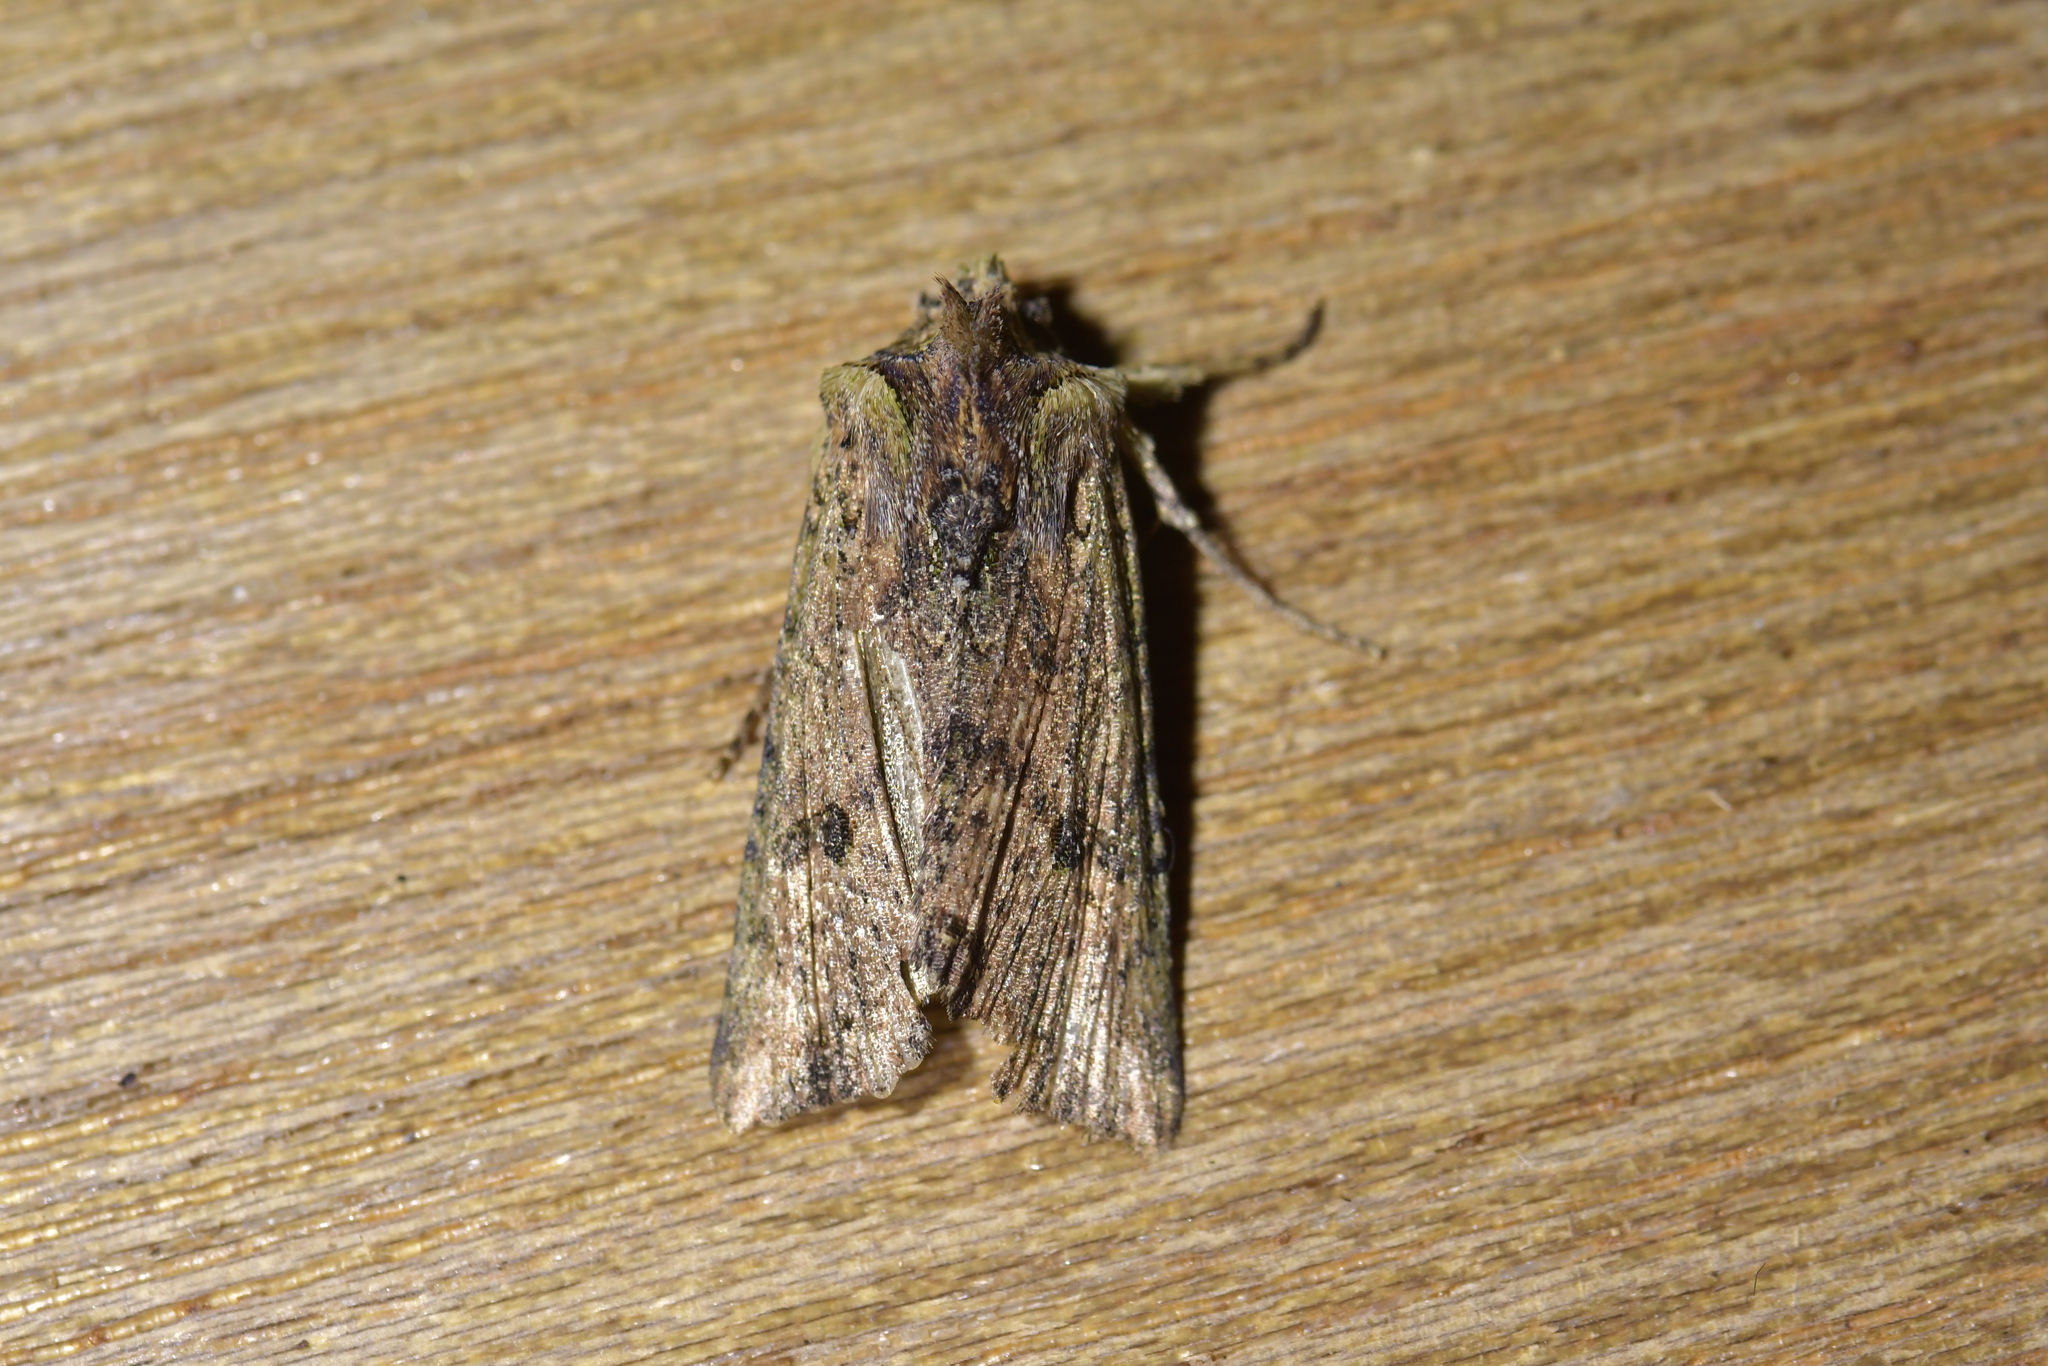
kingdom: Animalia
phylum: Arthropoda
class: Insecta
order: Lepidoptera
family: Noctuidae
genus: Meterana
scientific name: Meterana coeleno
